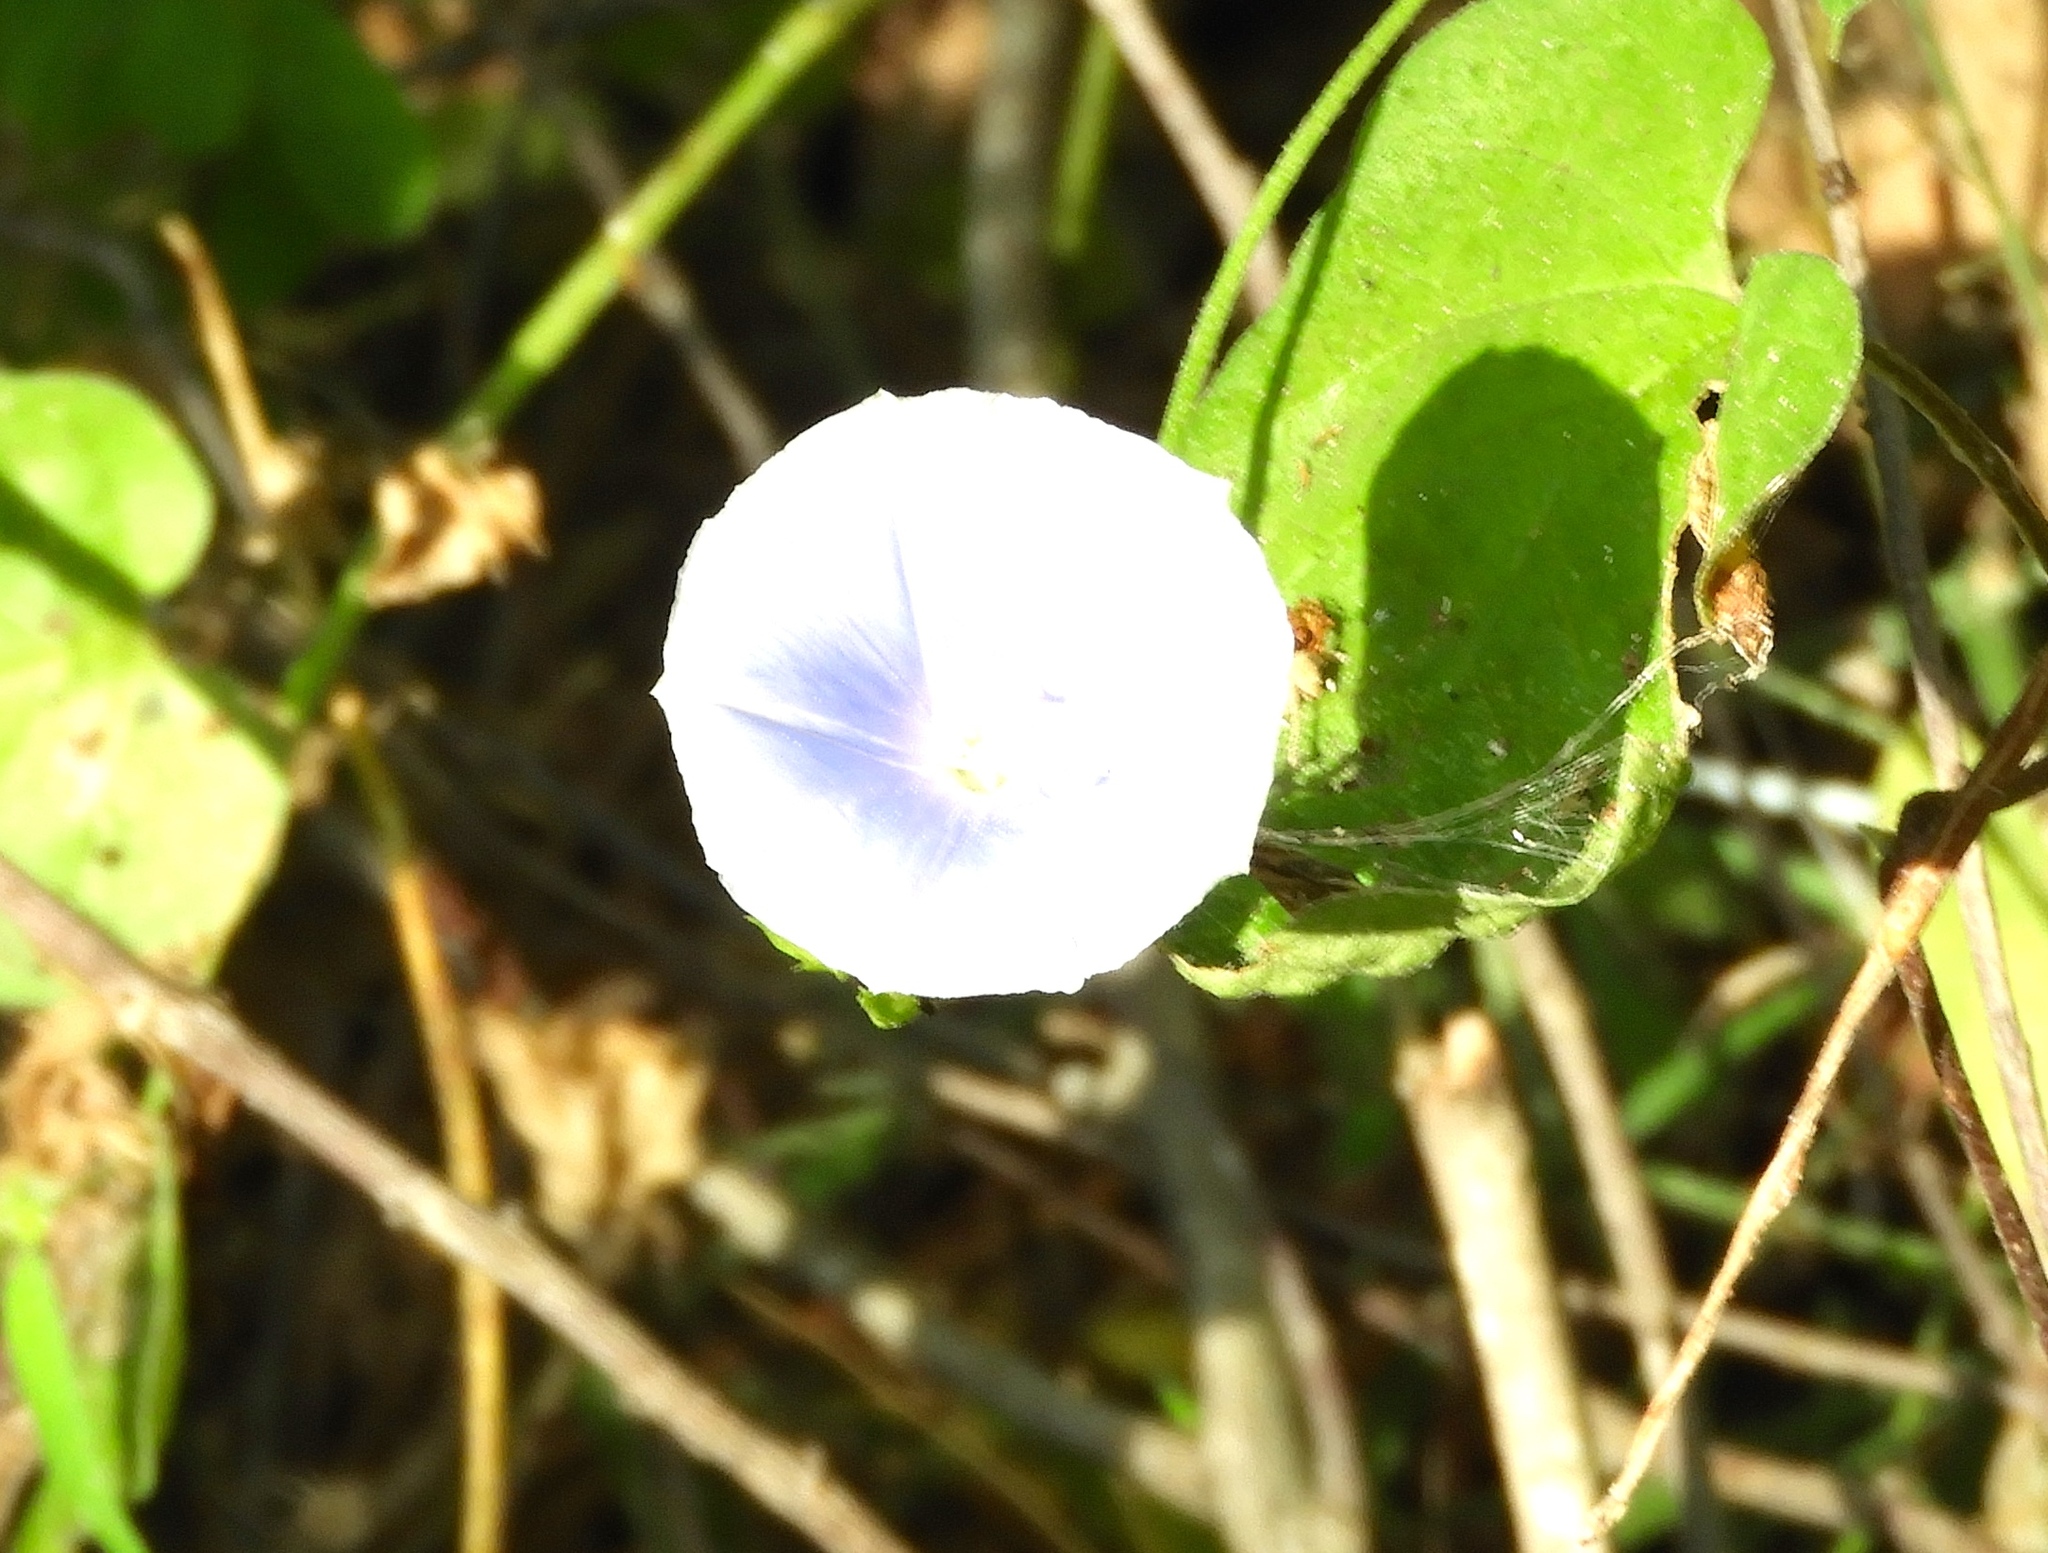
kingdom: Plantae
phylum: Tracheophyta
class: Magnoliopsida
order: Solanales
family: Convolvulaceae
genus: Jacquemontia
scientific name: Jacquemontia
